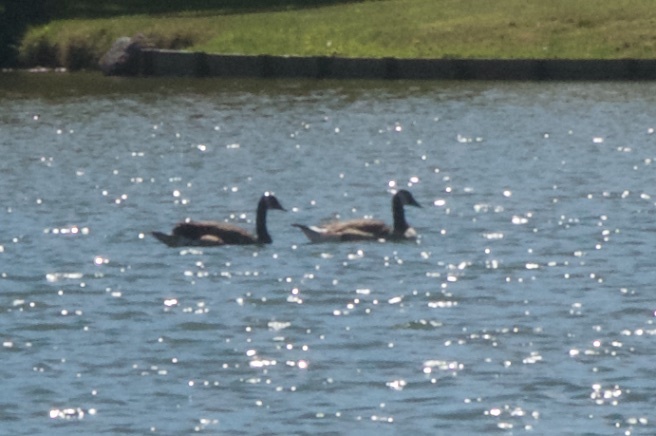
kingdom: Animalia
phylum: Chordata
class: Aves
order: Anseriformes
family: Anatidae
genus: Branta
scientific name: Branta canadensis
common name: Canada goose
